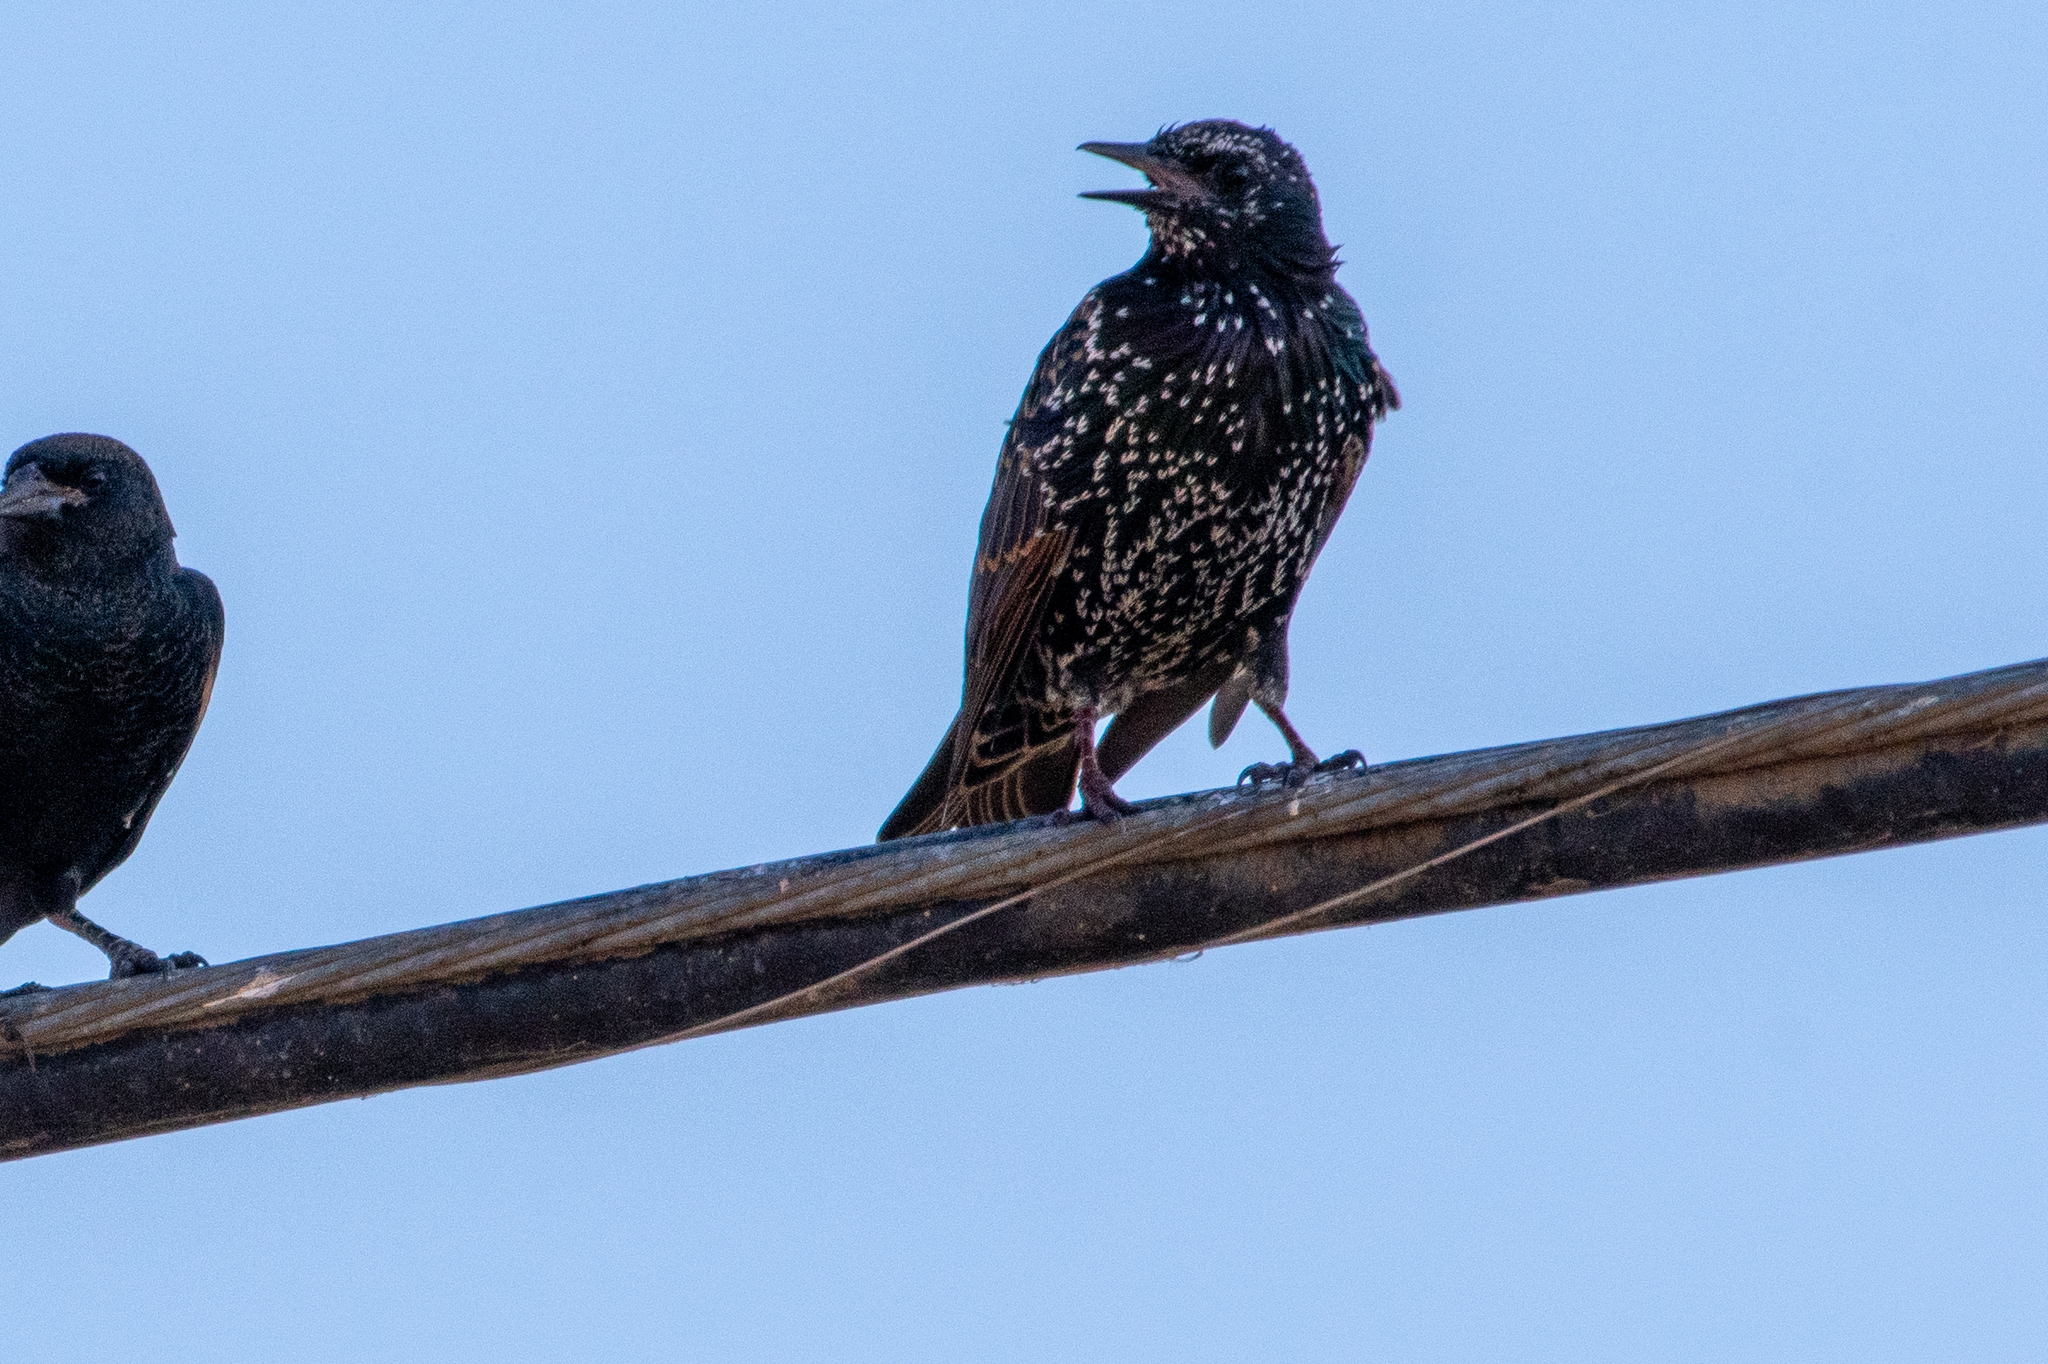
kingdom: Animalia
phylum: Chordata
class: Aves
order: Passeriformes
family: Sturnidae
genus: Sturnus
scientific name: Sturnus vulgaris
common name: Common starling
